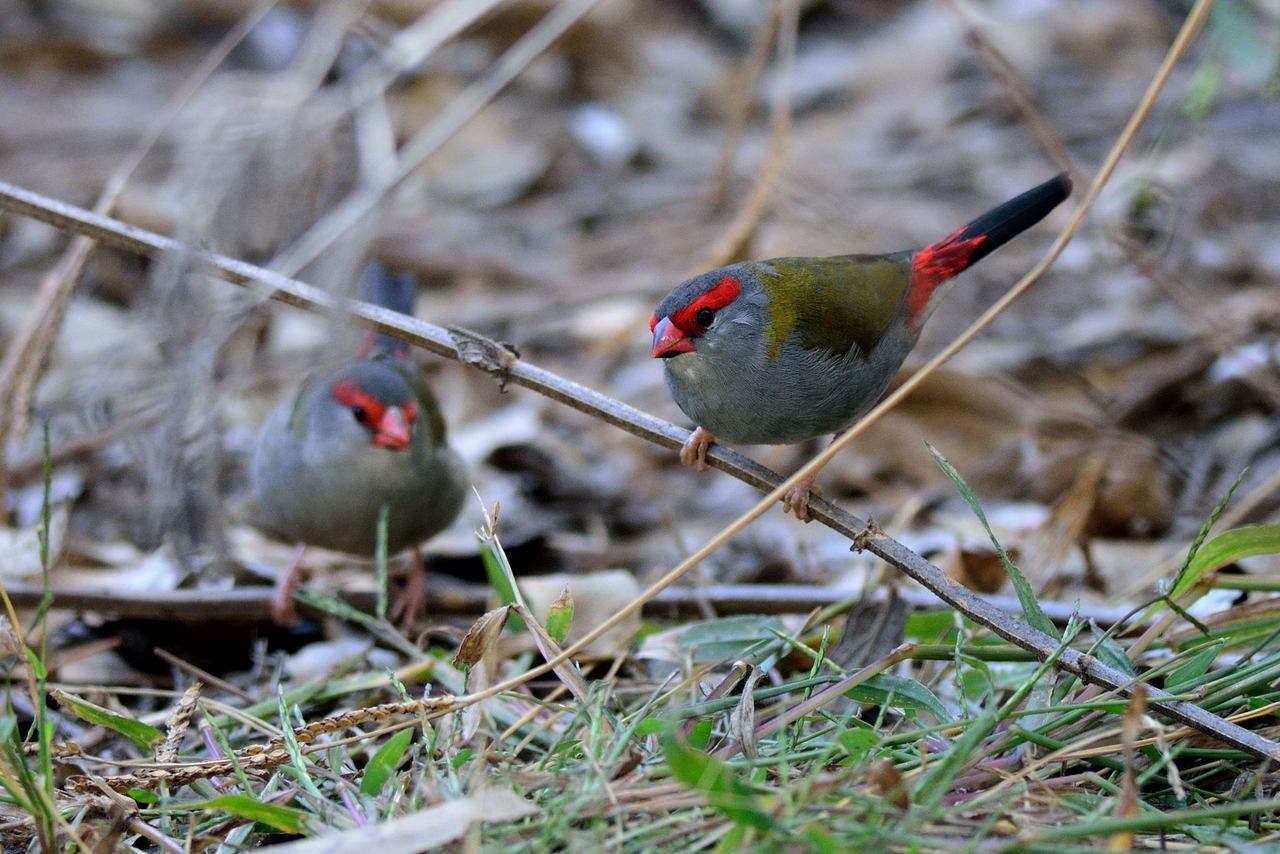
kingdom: Animalia
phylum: Chordata
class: Aves
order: Passeriformes
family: Estrildidae
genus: Neochmia
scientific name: Neochmia temporalis
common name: Red-browed finch
